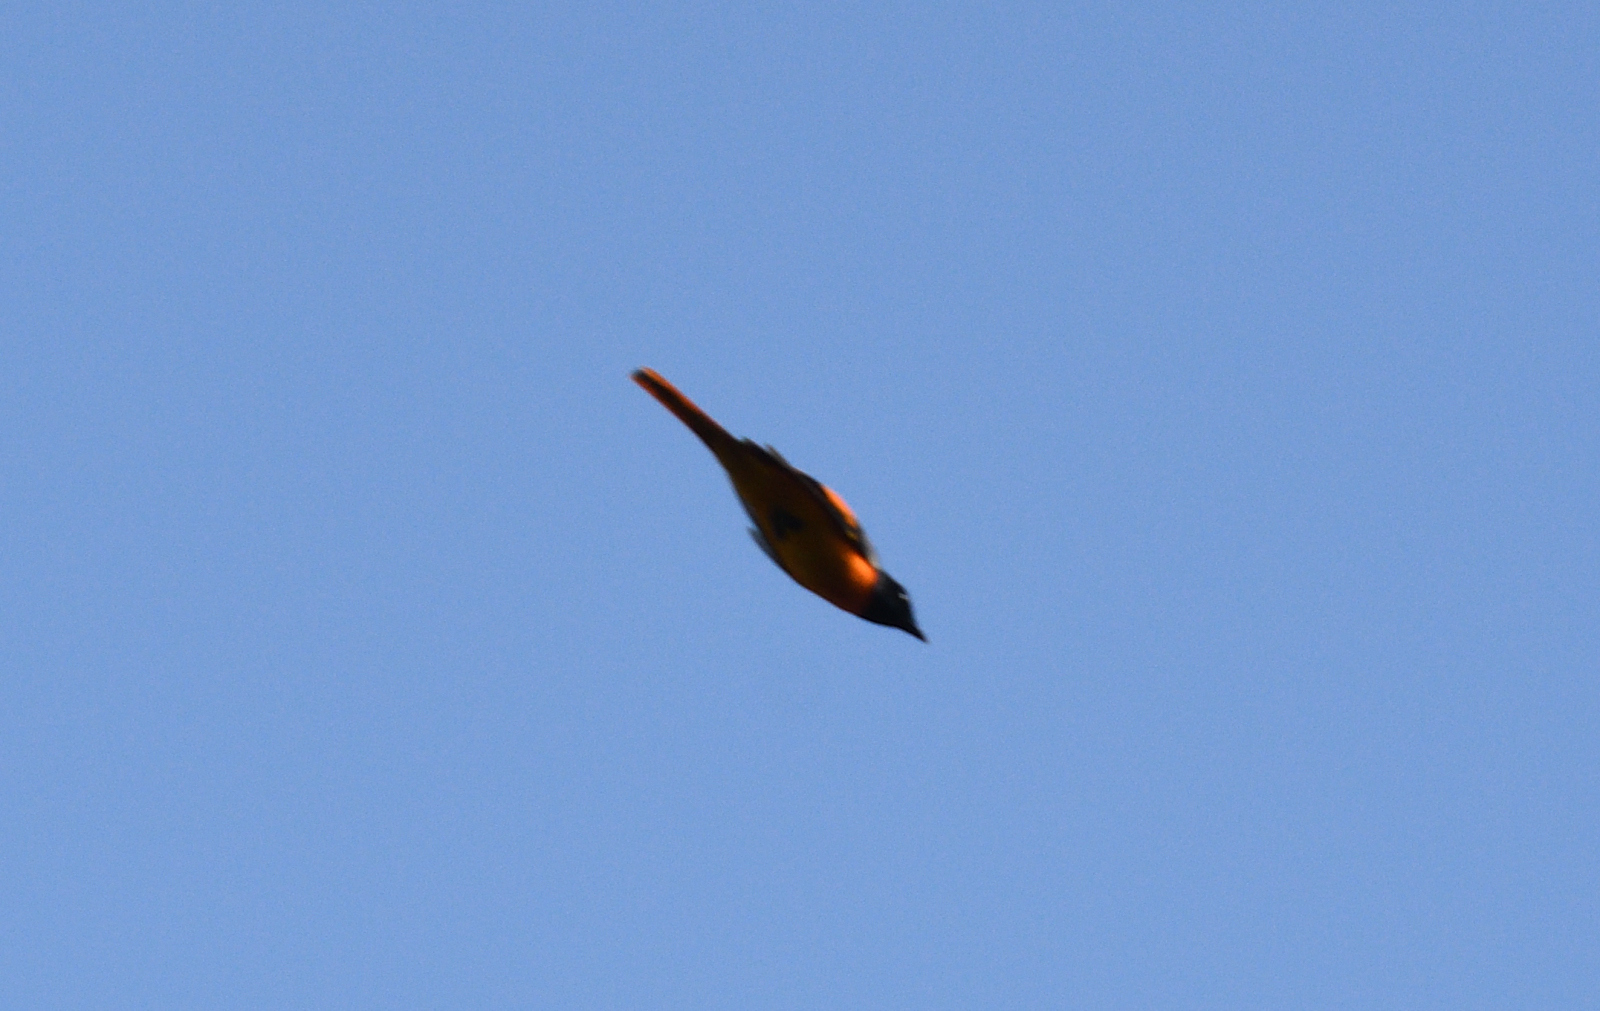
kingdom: Animalia
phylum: Chordata
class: Aves
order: Passeriformes
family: Campephagidae
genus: Pericrocotus
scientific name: Pericrocotus flammeus
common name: Orange minivet
